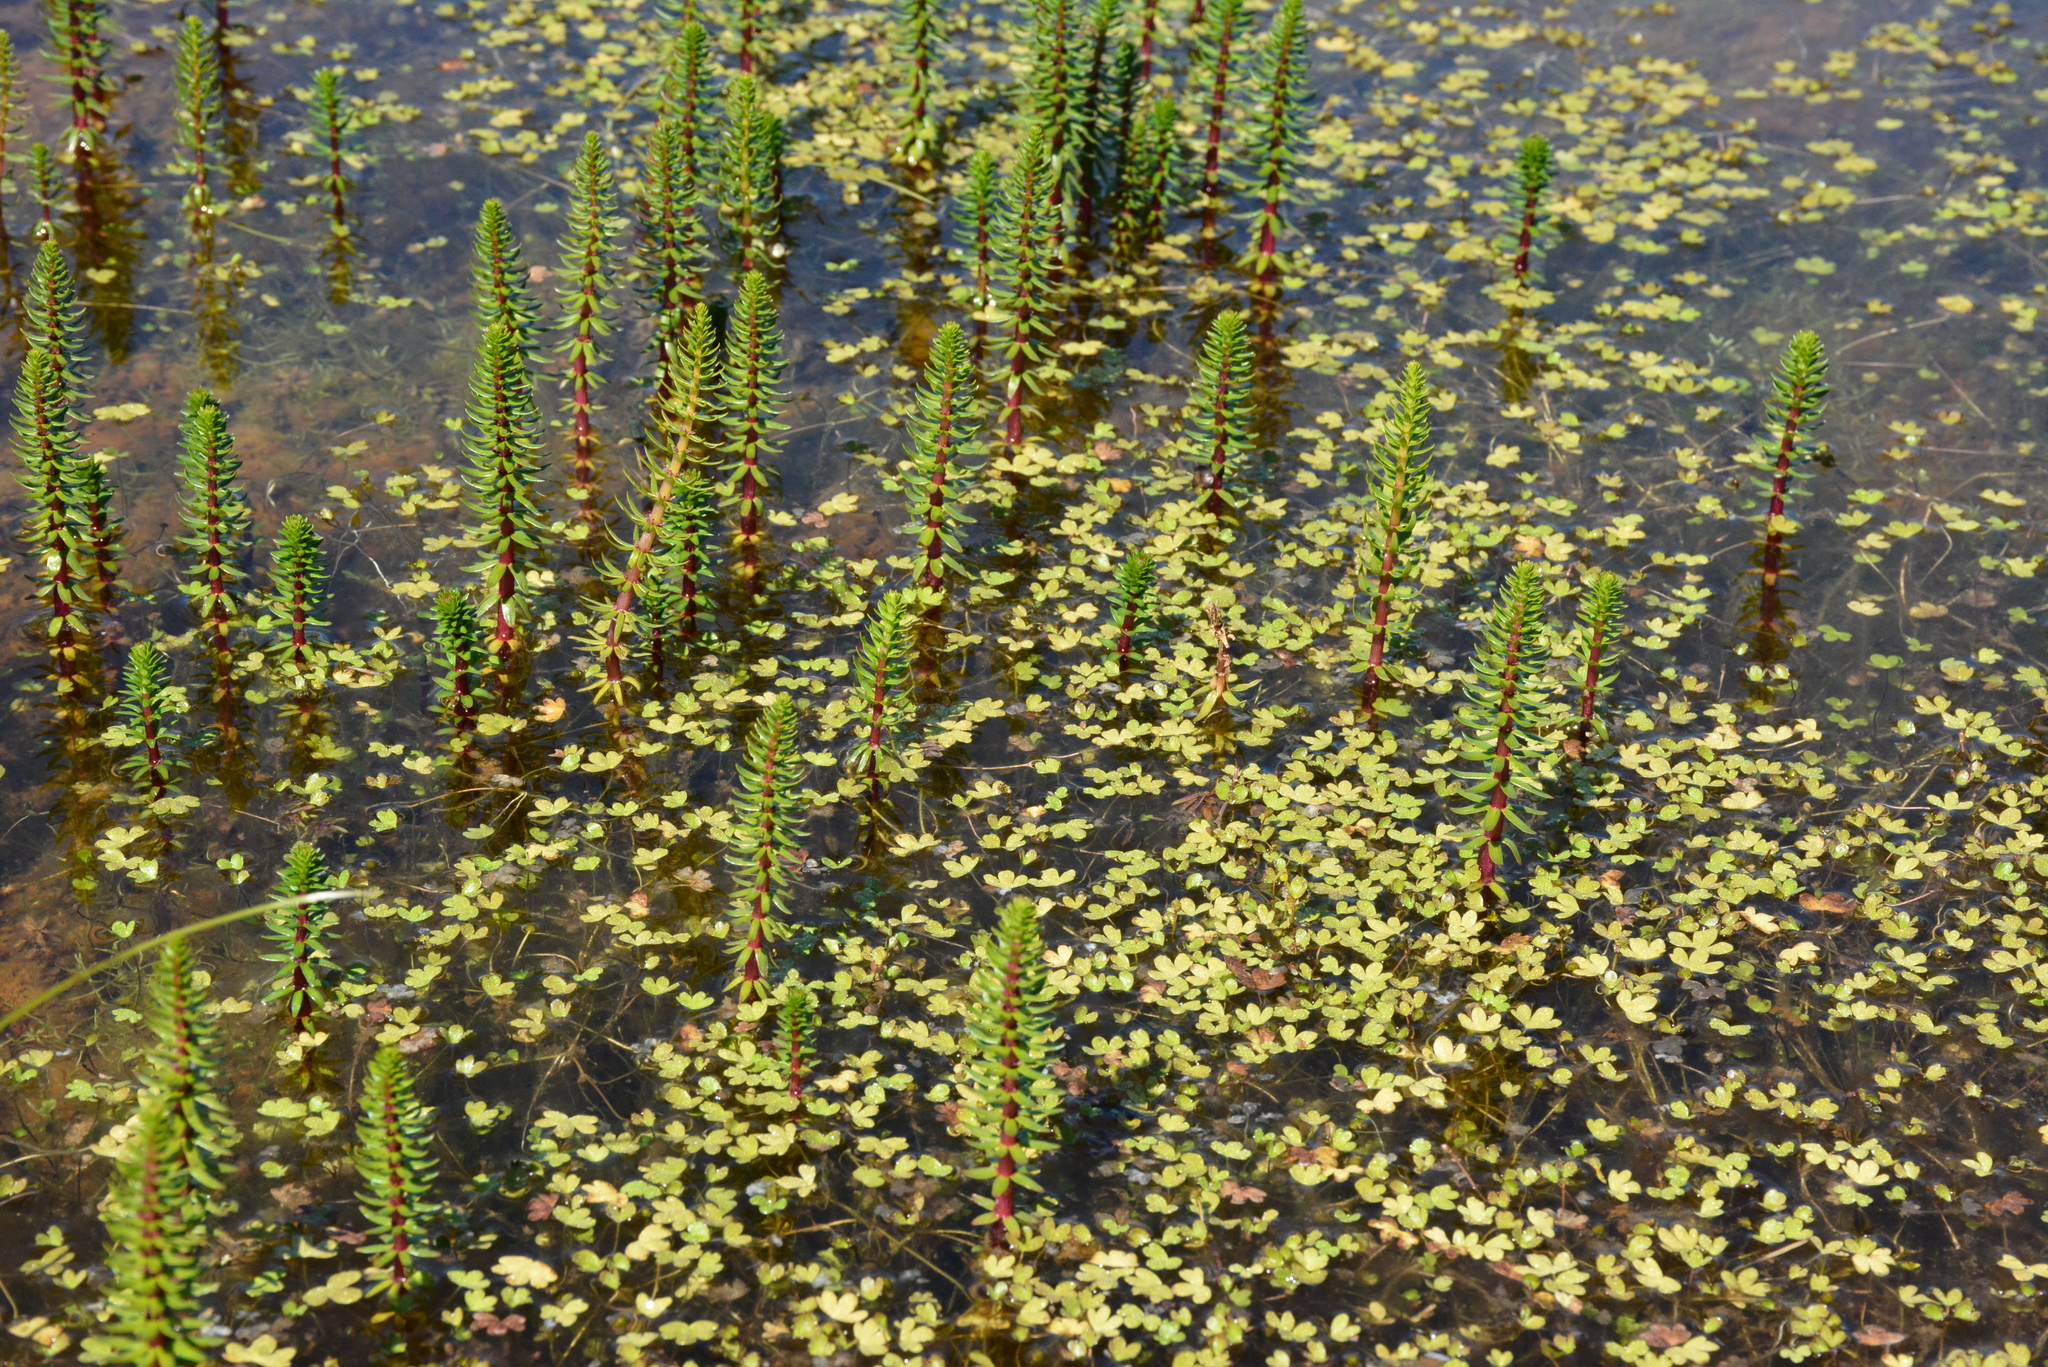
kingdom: Plantae
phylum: Tracheophyta
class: Magnoliopsida
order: Lamiales
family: Plantaginaceae
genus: Hippuris
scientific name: Hippuris vulgaris
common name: Mare's-tail
